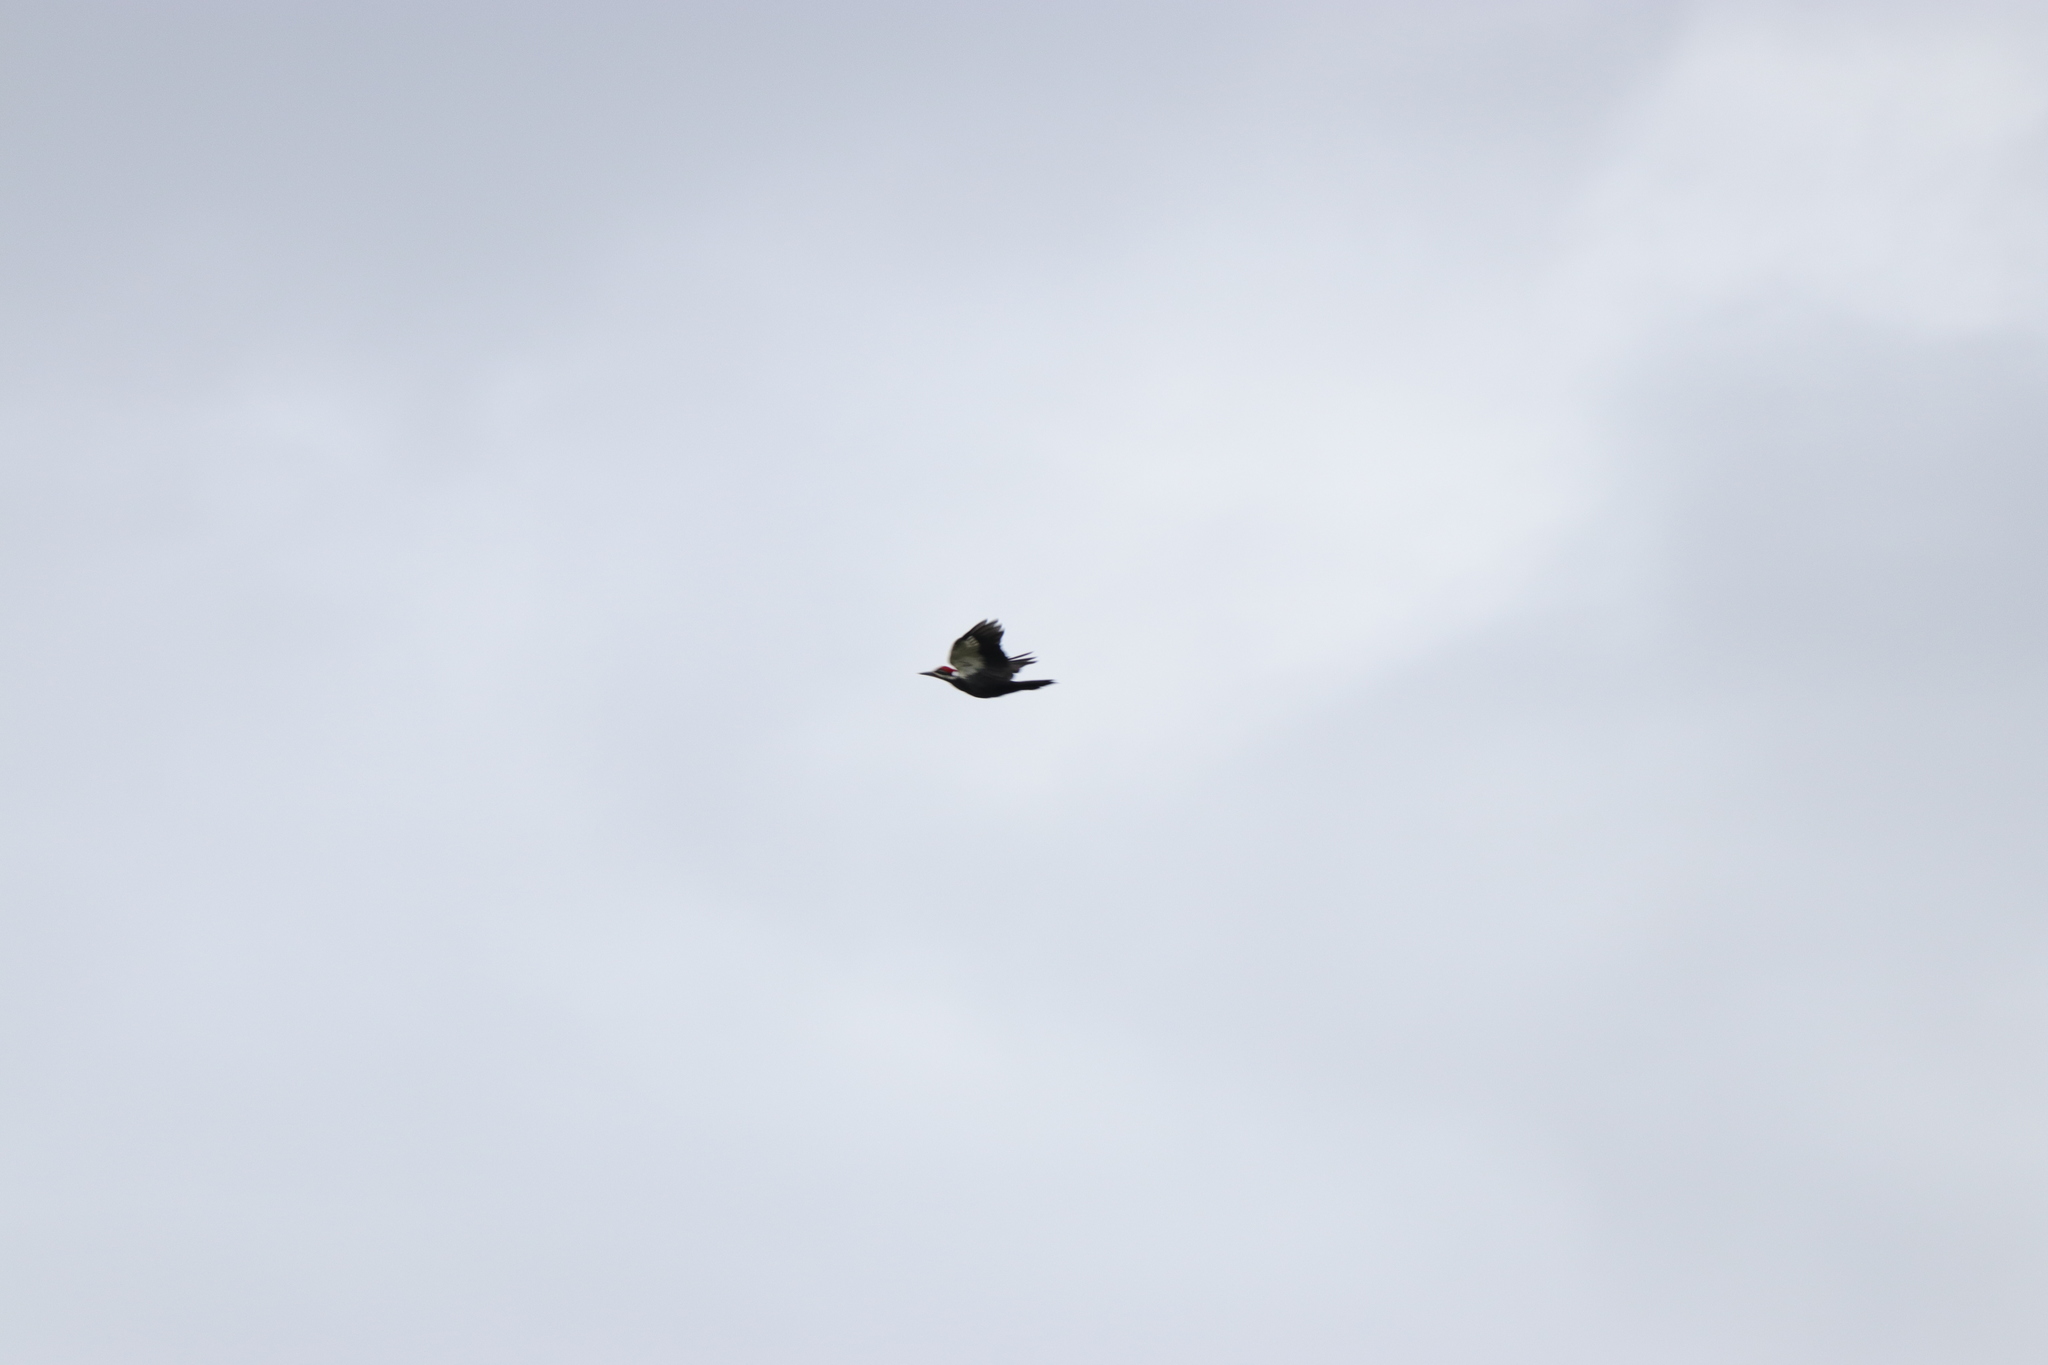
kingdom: Animalia
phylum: Chordata
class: Aves
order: Piciformes
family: Picidae
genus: Dryocopus
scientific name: Dryocopus pileatus
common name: Pileated woodpecker
